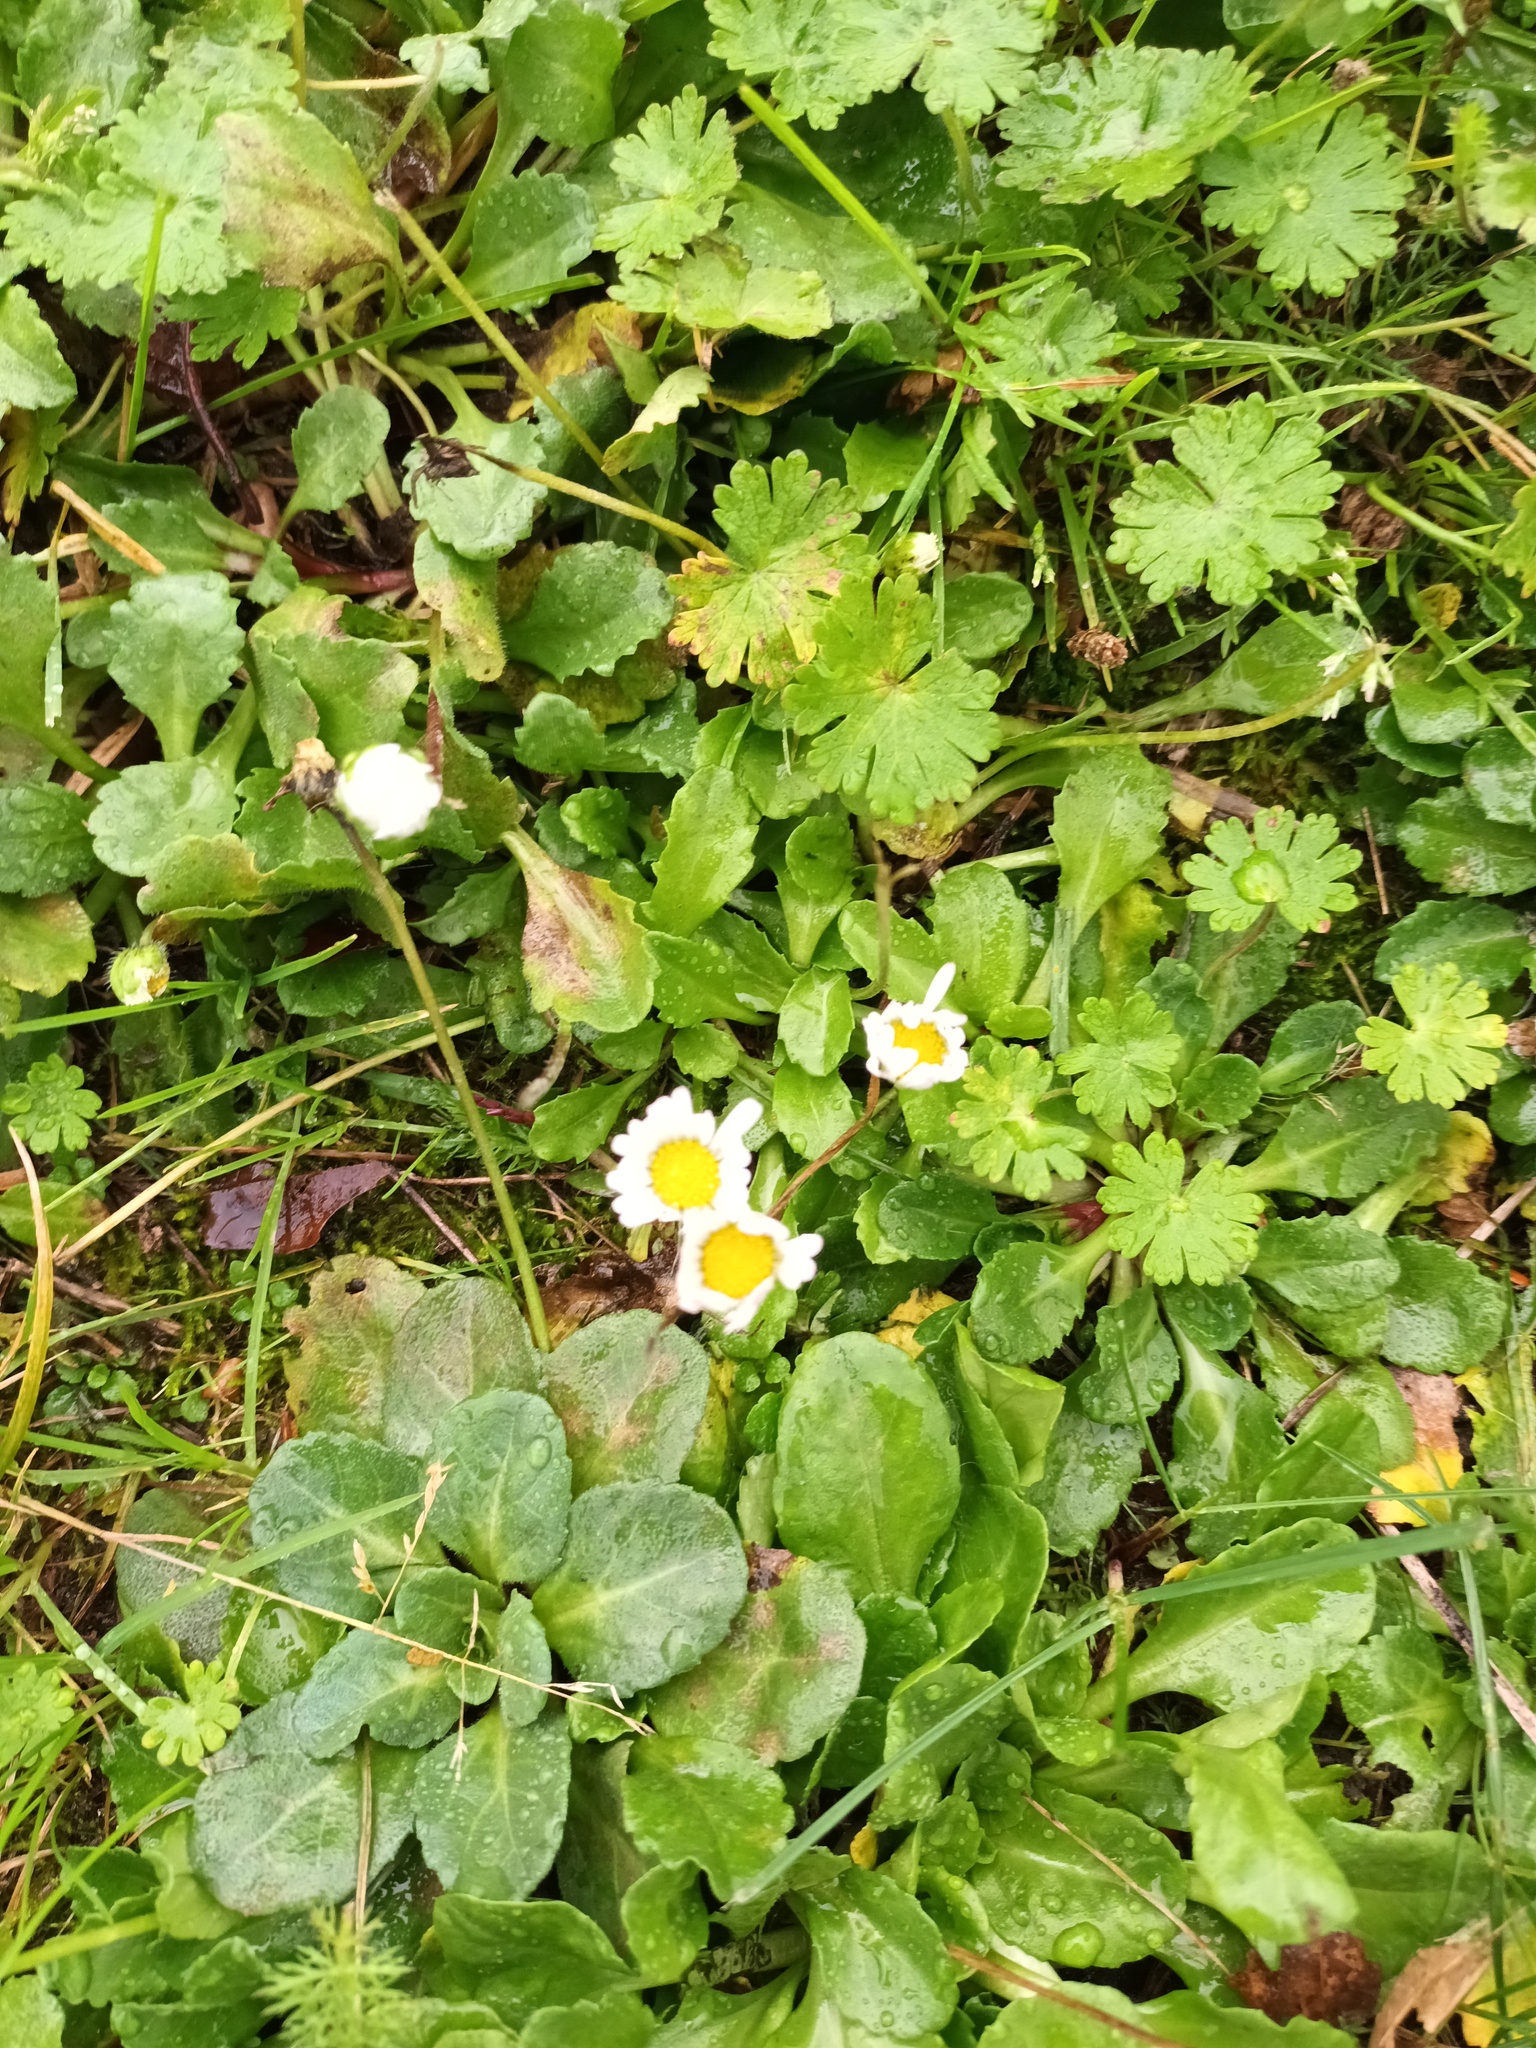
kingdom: Plantae
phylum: Tracheophyta
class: Magnoliopsida
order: Asterales
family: Asteraceae
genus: Bellis
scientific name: Bellis perennis
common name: Lawndaisy
